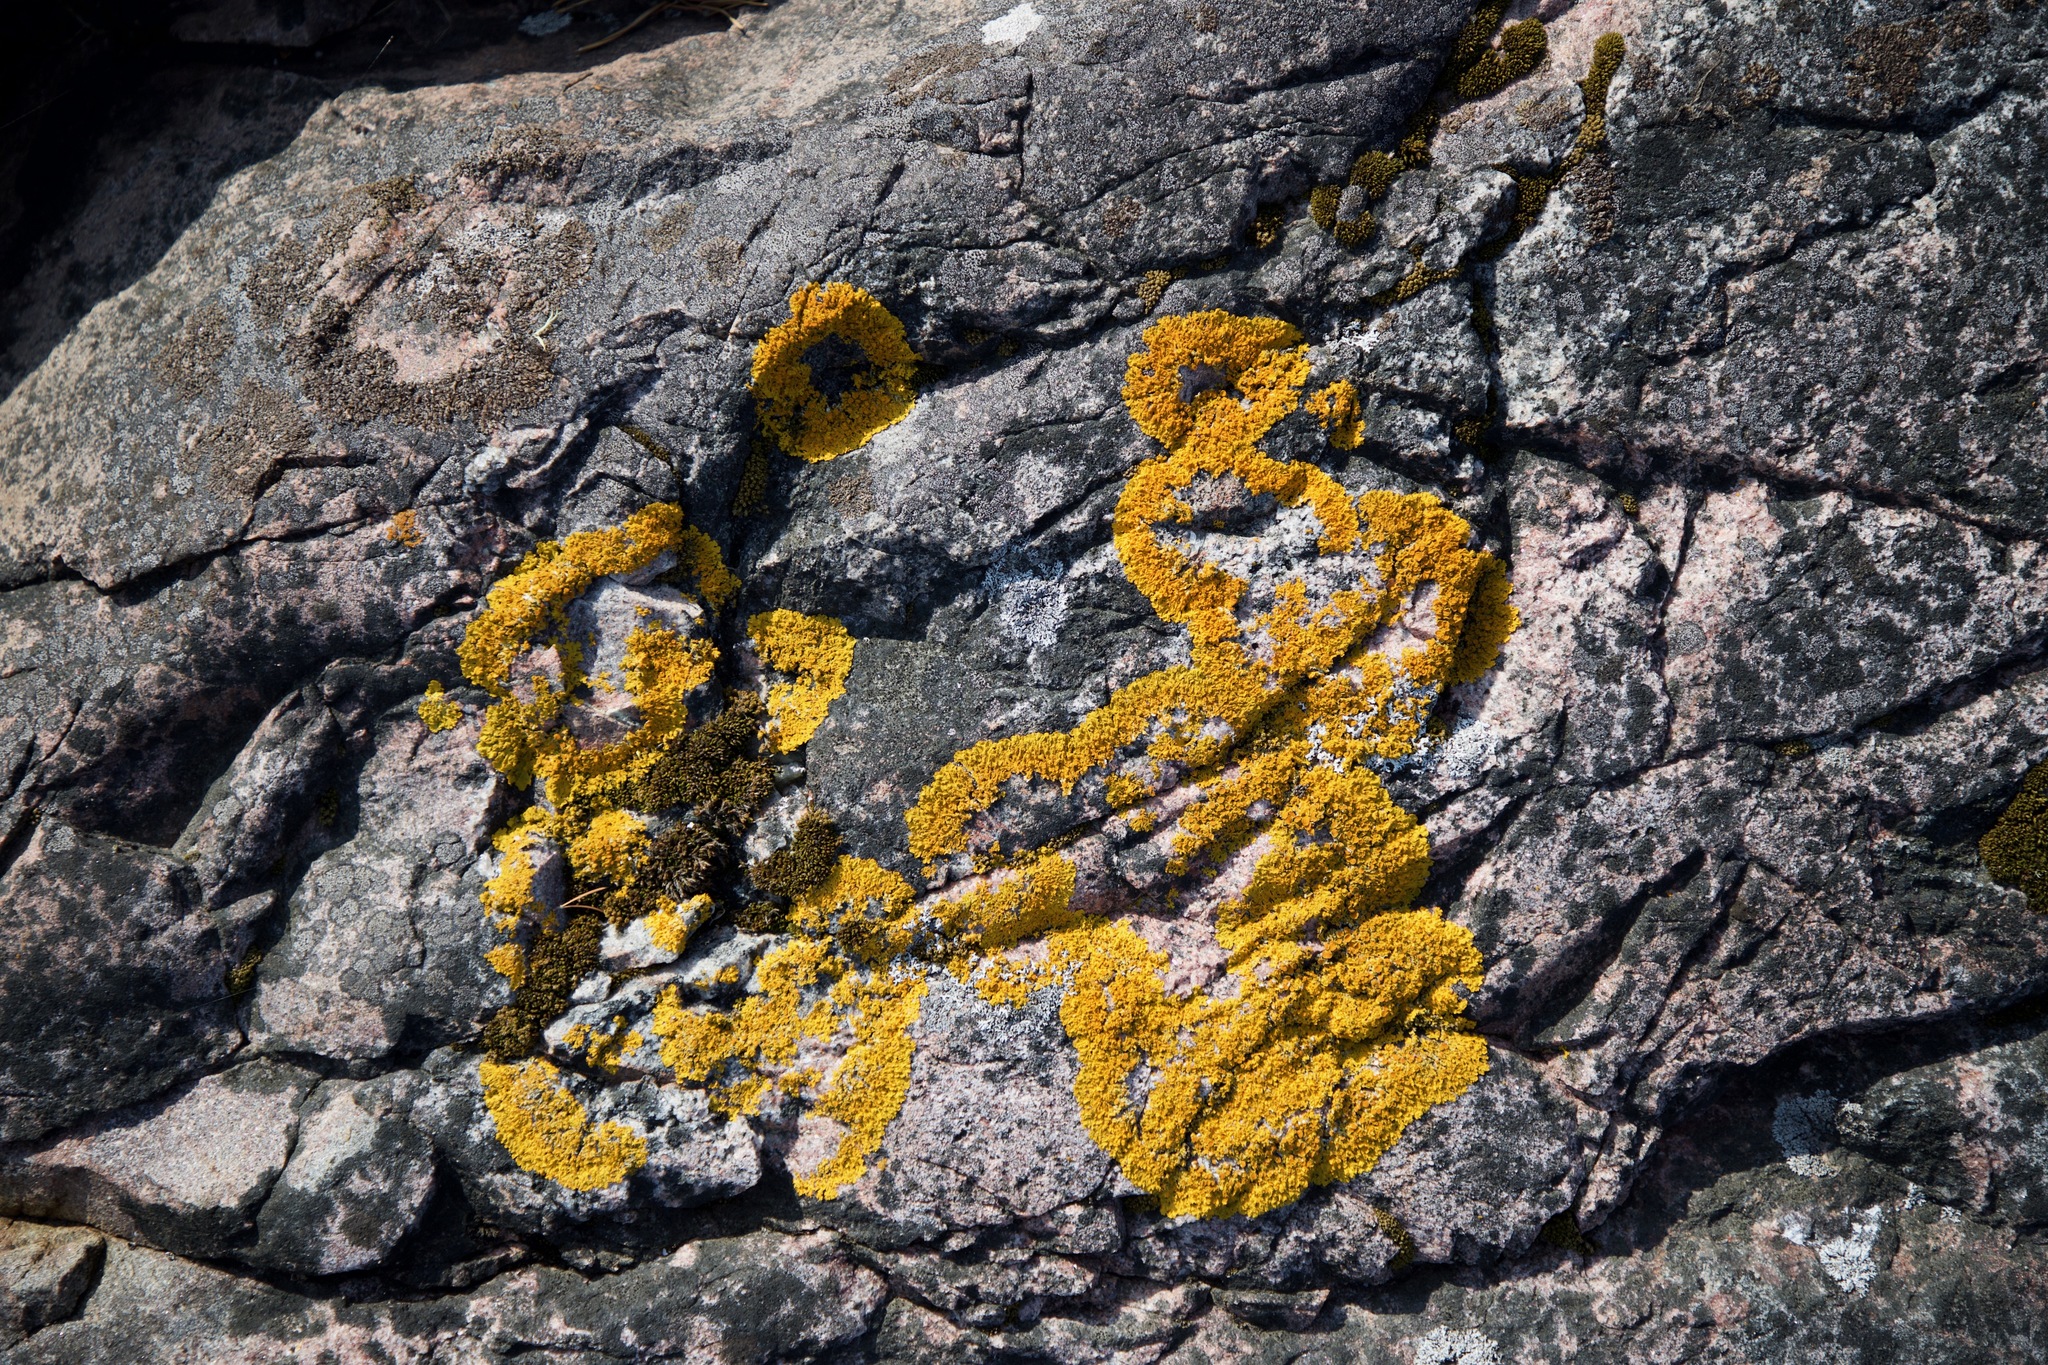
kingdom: Fungi
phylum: Ascomycota
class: Lecanoromycetes
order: Teloschistales
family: Teloschistaceae
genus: Xanthoria
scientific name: Xanthoria parietina
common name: Common orange lichen
